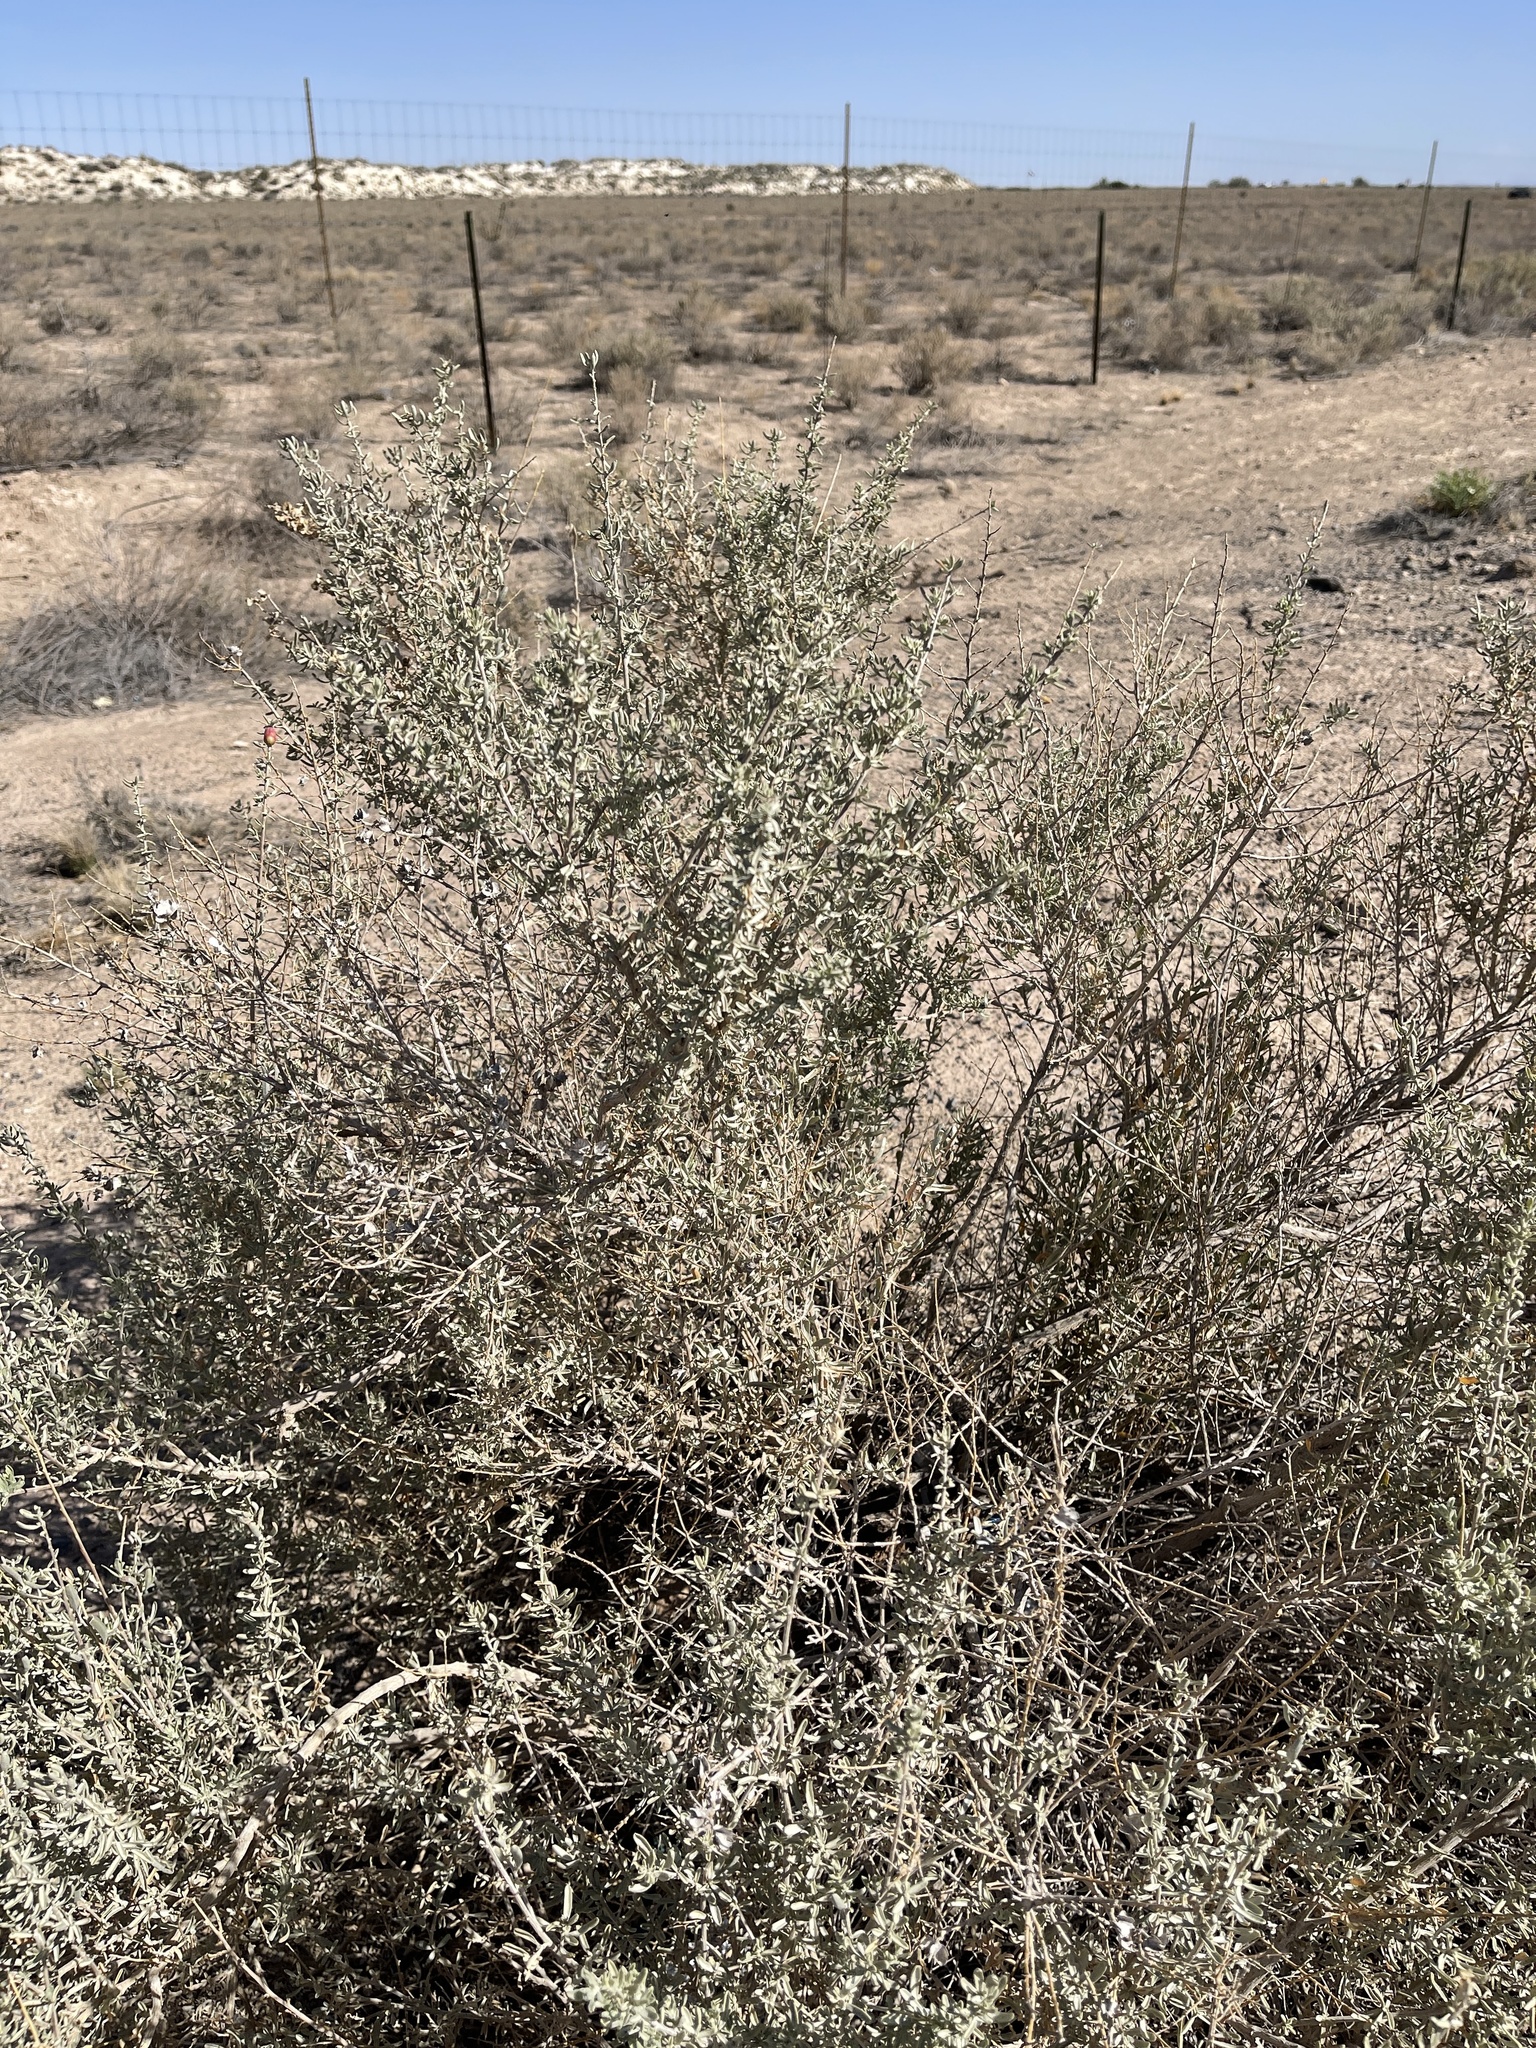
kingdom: Plantae
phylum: Tracheophyta
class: Magnoliopsida
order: Caryophyllales
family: Amaranthaceae
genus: Atriplex
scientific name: Atriplex canescens
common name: Four-wing saltbush
